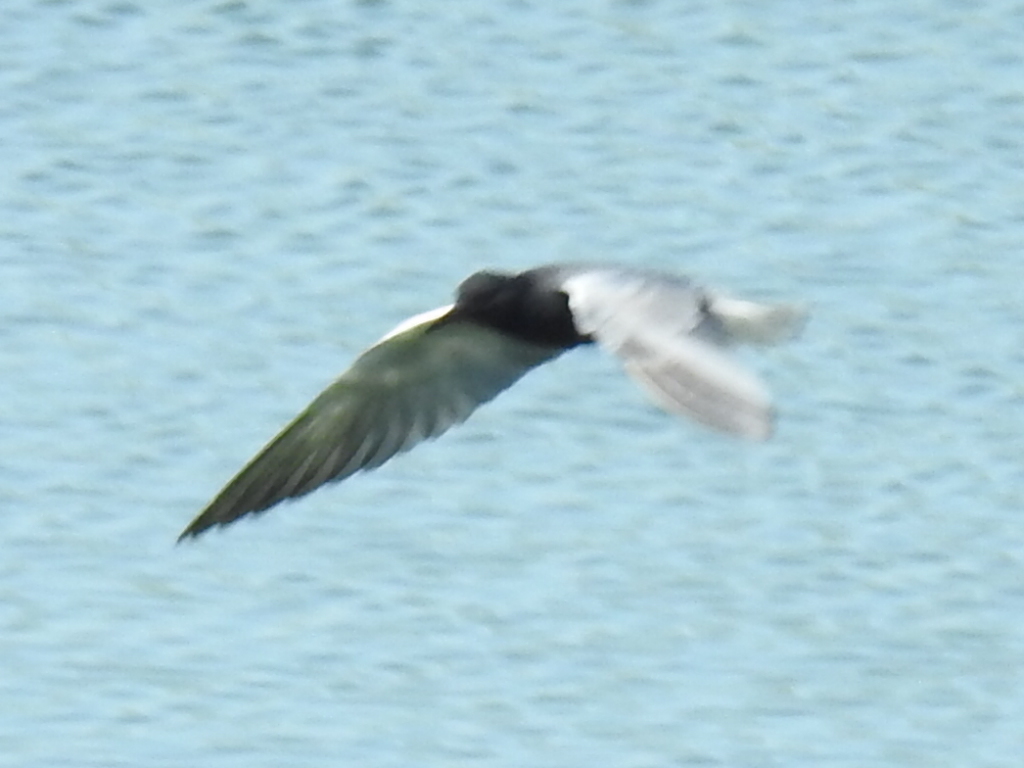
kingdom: Animalia
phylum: Chordata
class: Aves
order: Charadriiformes
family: Laridae
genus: Chlidonias
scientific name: Chlidonias niger
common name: Black tern
